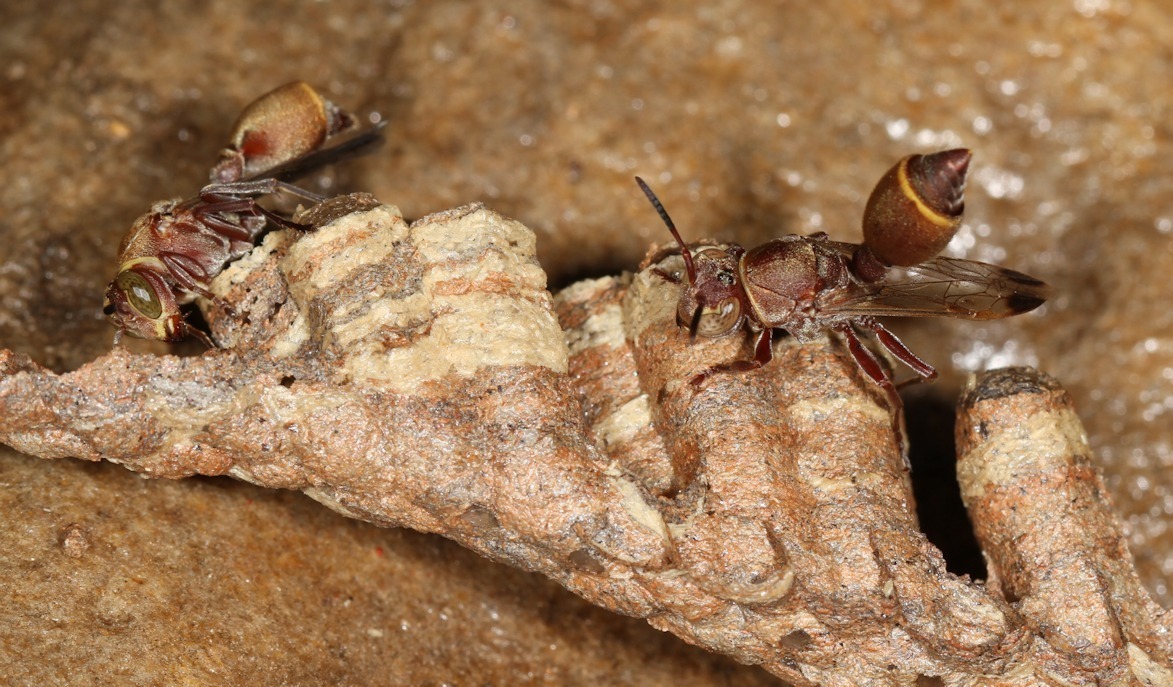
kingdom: Animalia
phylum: Arthropoda
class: Insecta
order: Hymenoptera
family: Vespidae
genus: Ropalidia
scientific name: Ropalidia distigma
